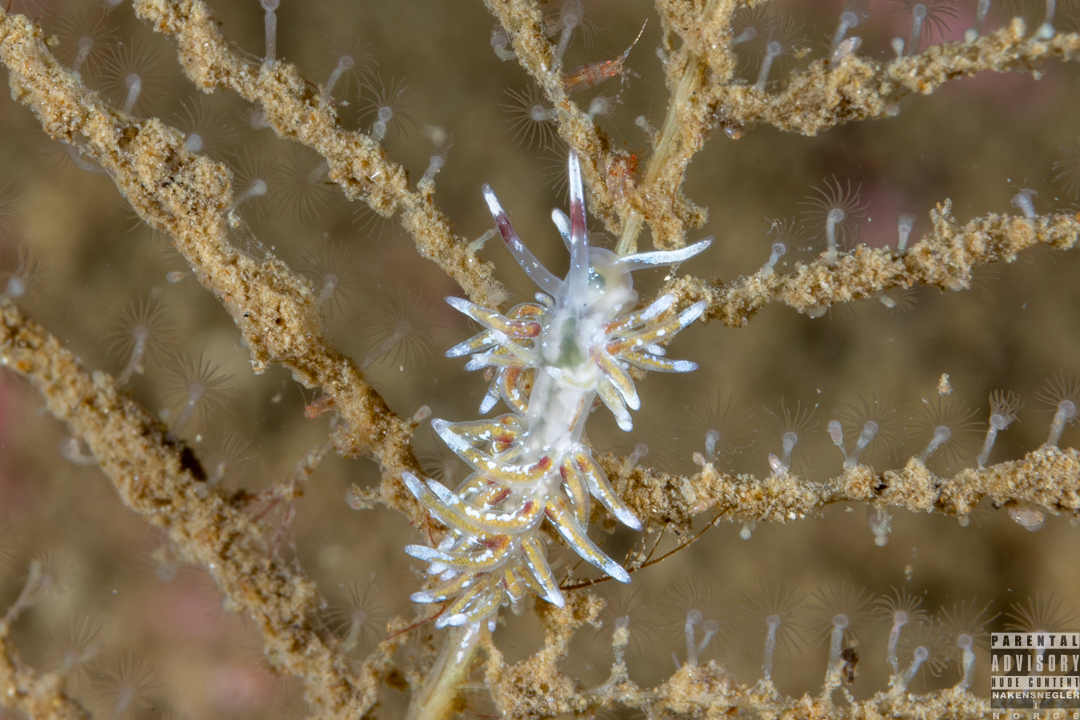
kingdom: Animalia
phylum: Mollusca
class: Gastropoda
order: Nudibranchia
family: Trinchesiidae
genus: Rubramoena
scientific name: Rubramoena rubescens
